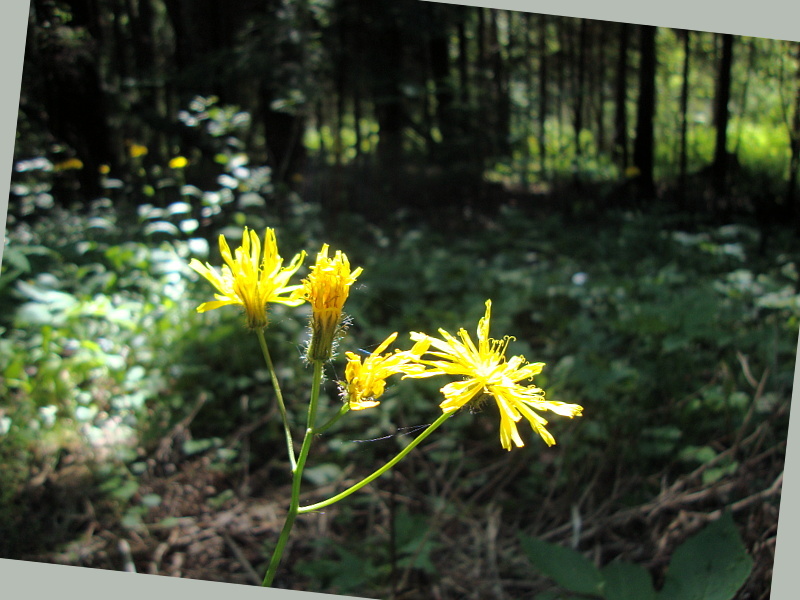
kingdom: Plantae
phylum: Tracheophyta
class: Magnoliopsida
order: Asterales
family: Asteraceae
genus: Crepis
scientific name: Crepis paludosa
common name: Marsh hawk's-beard
